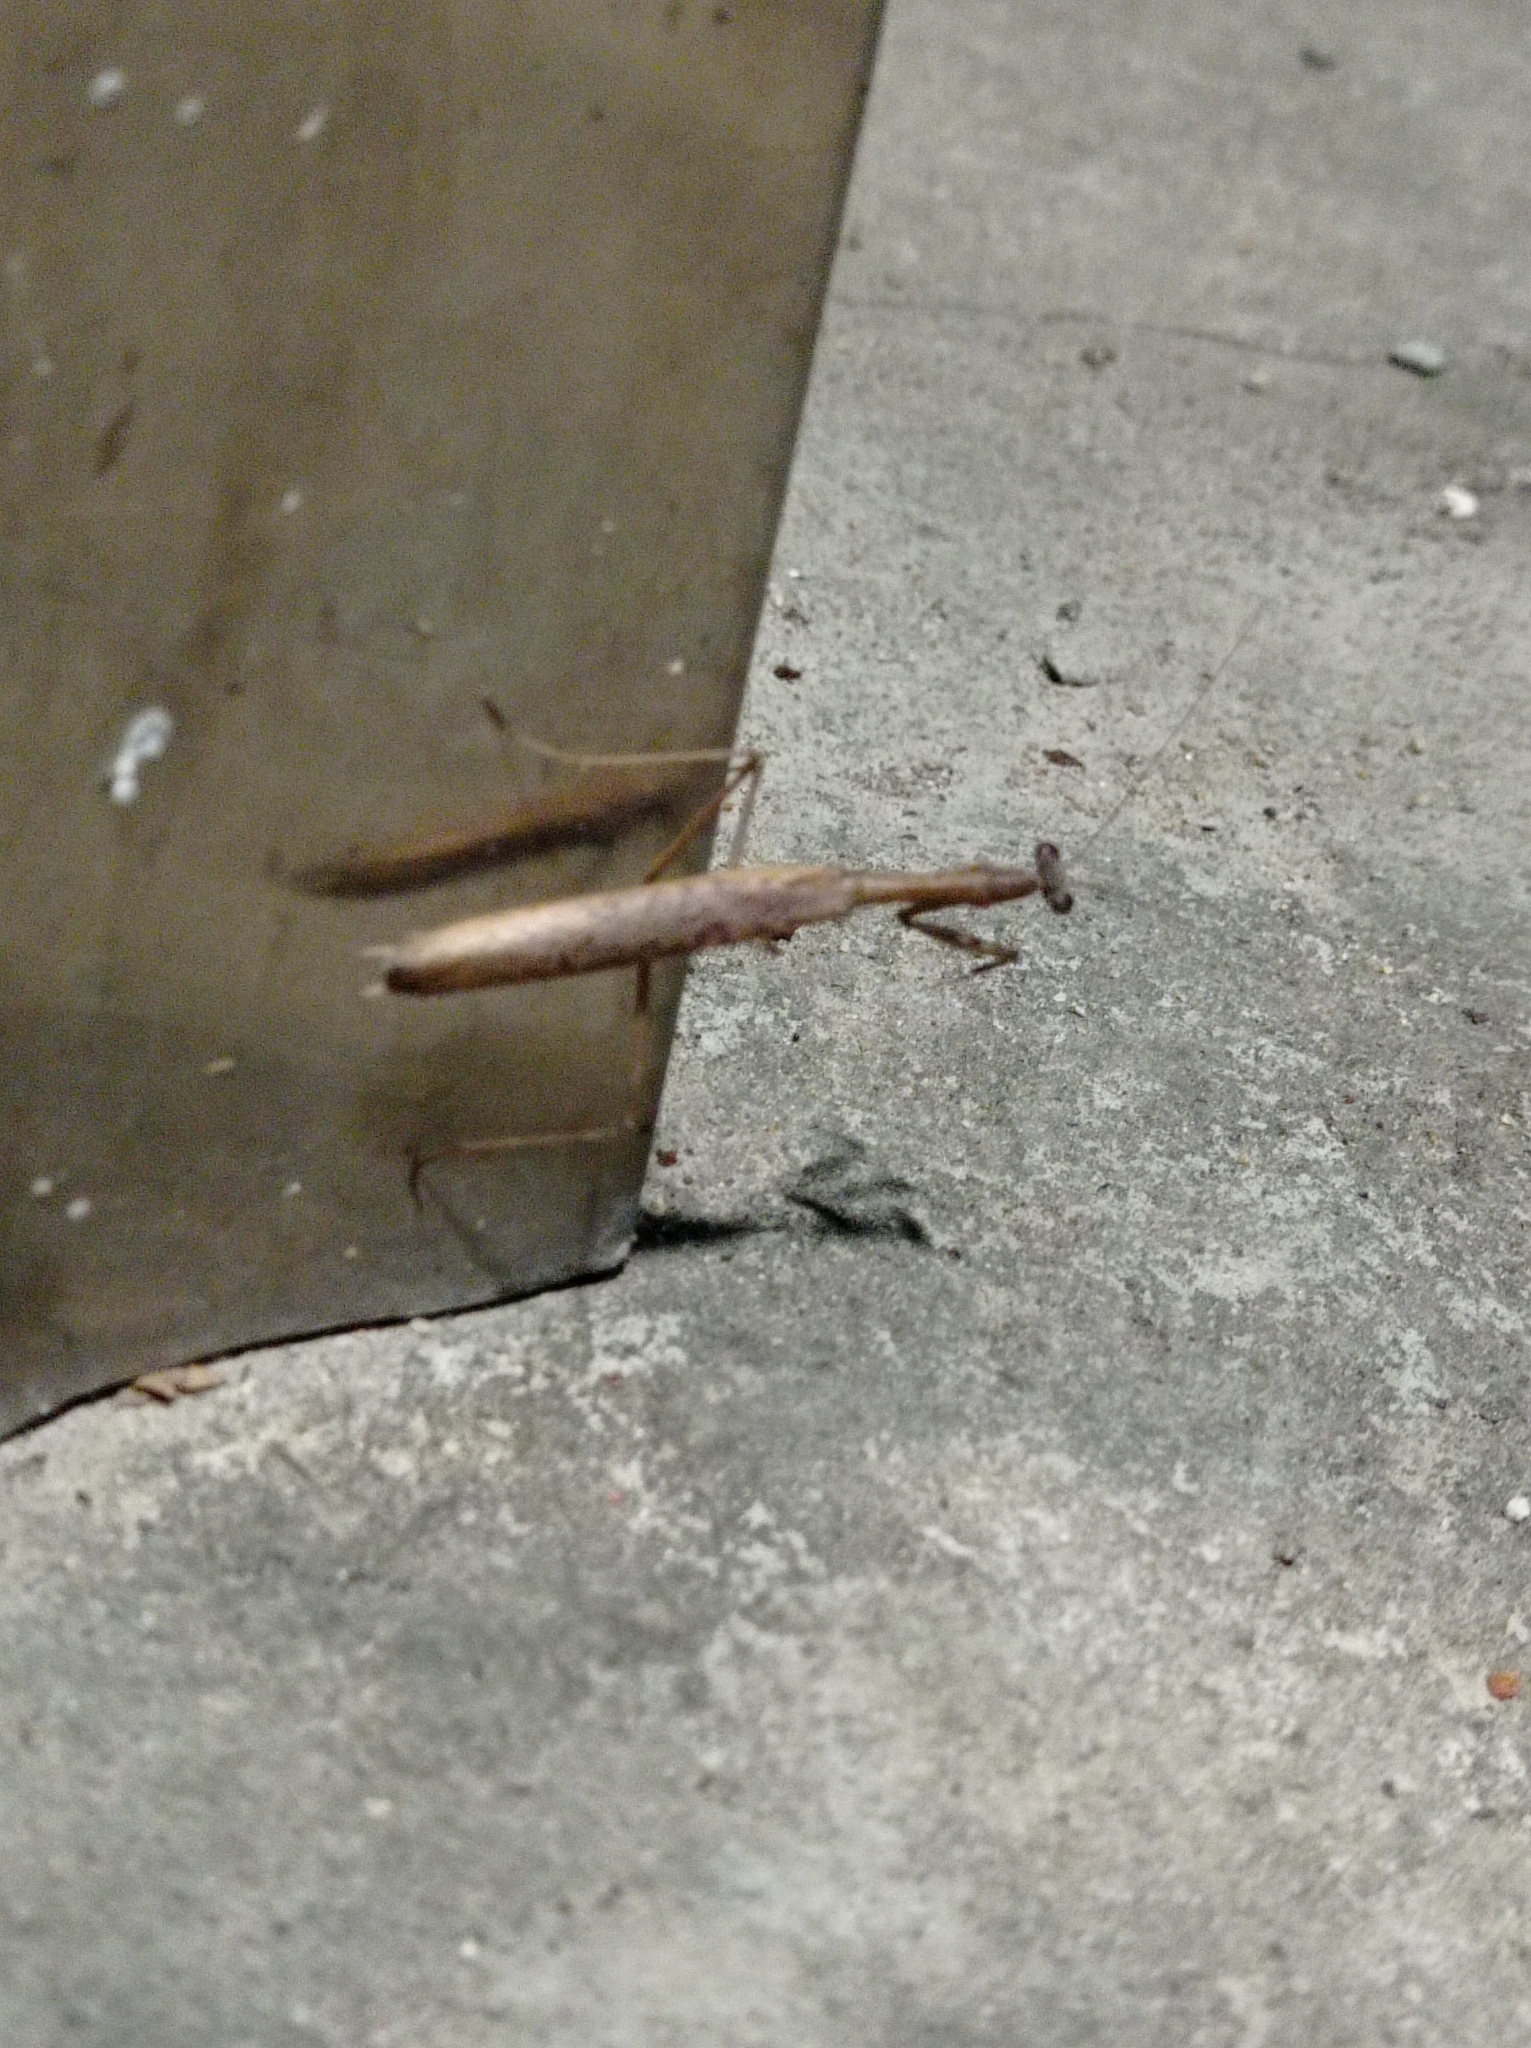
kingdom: Animalia
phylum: Arthropoda
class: Insecta
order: Mantodea
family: Mantidae
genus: Statilia
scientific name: Statilia maculata
